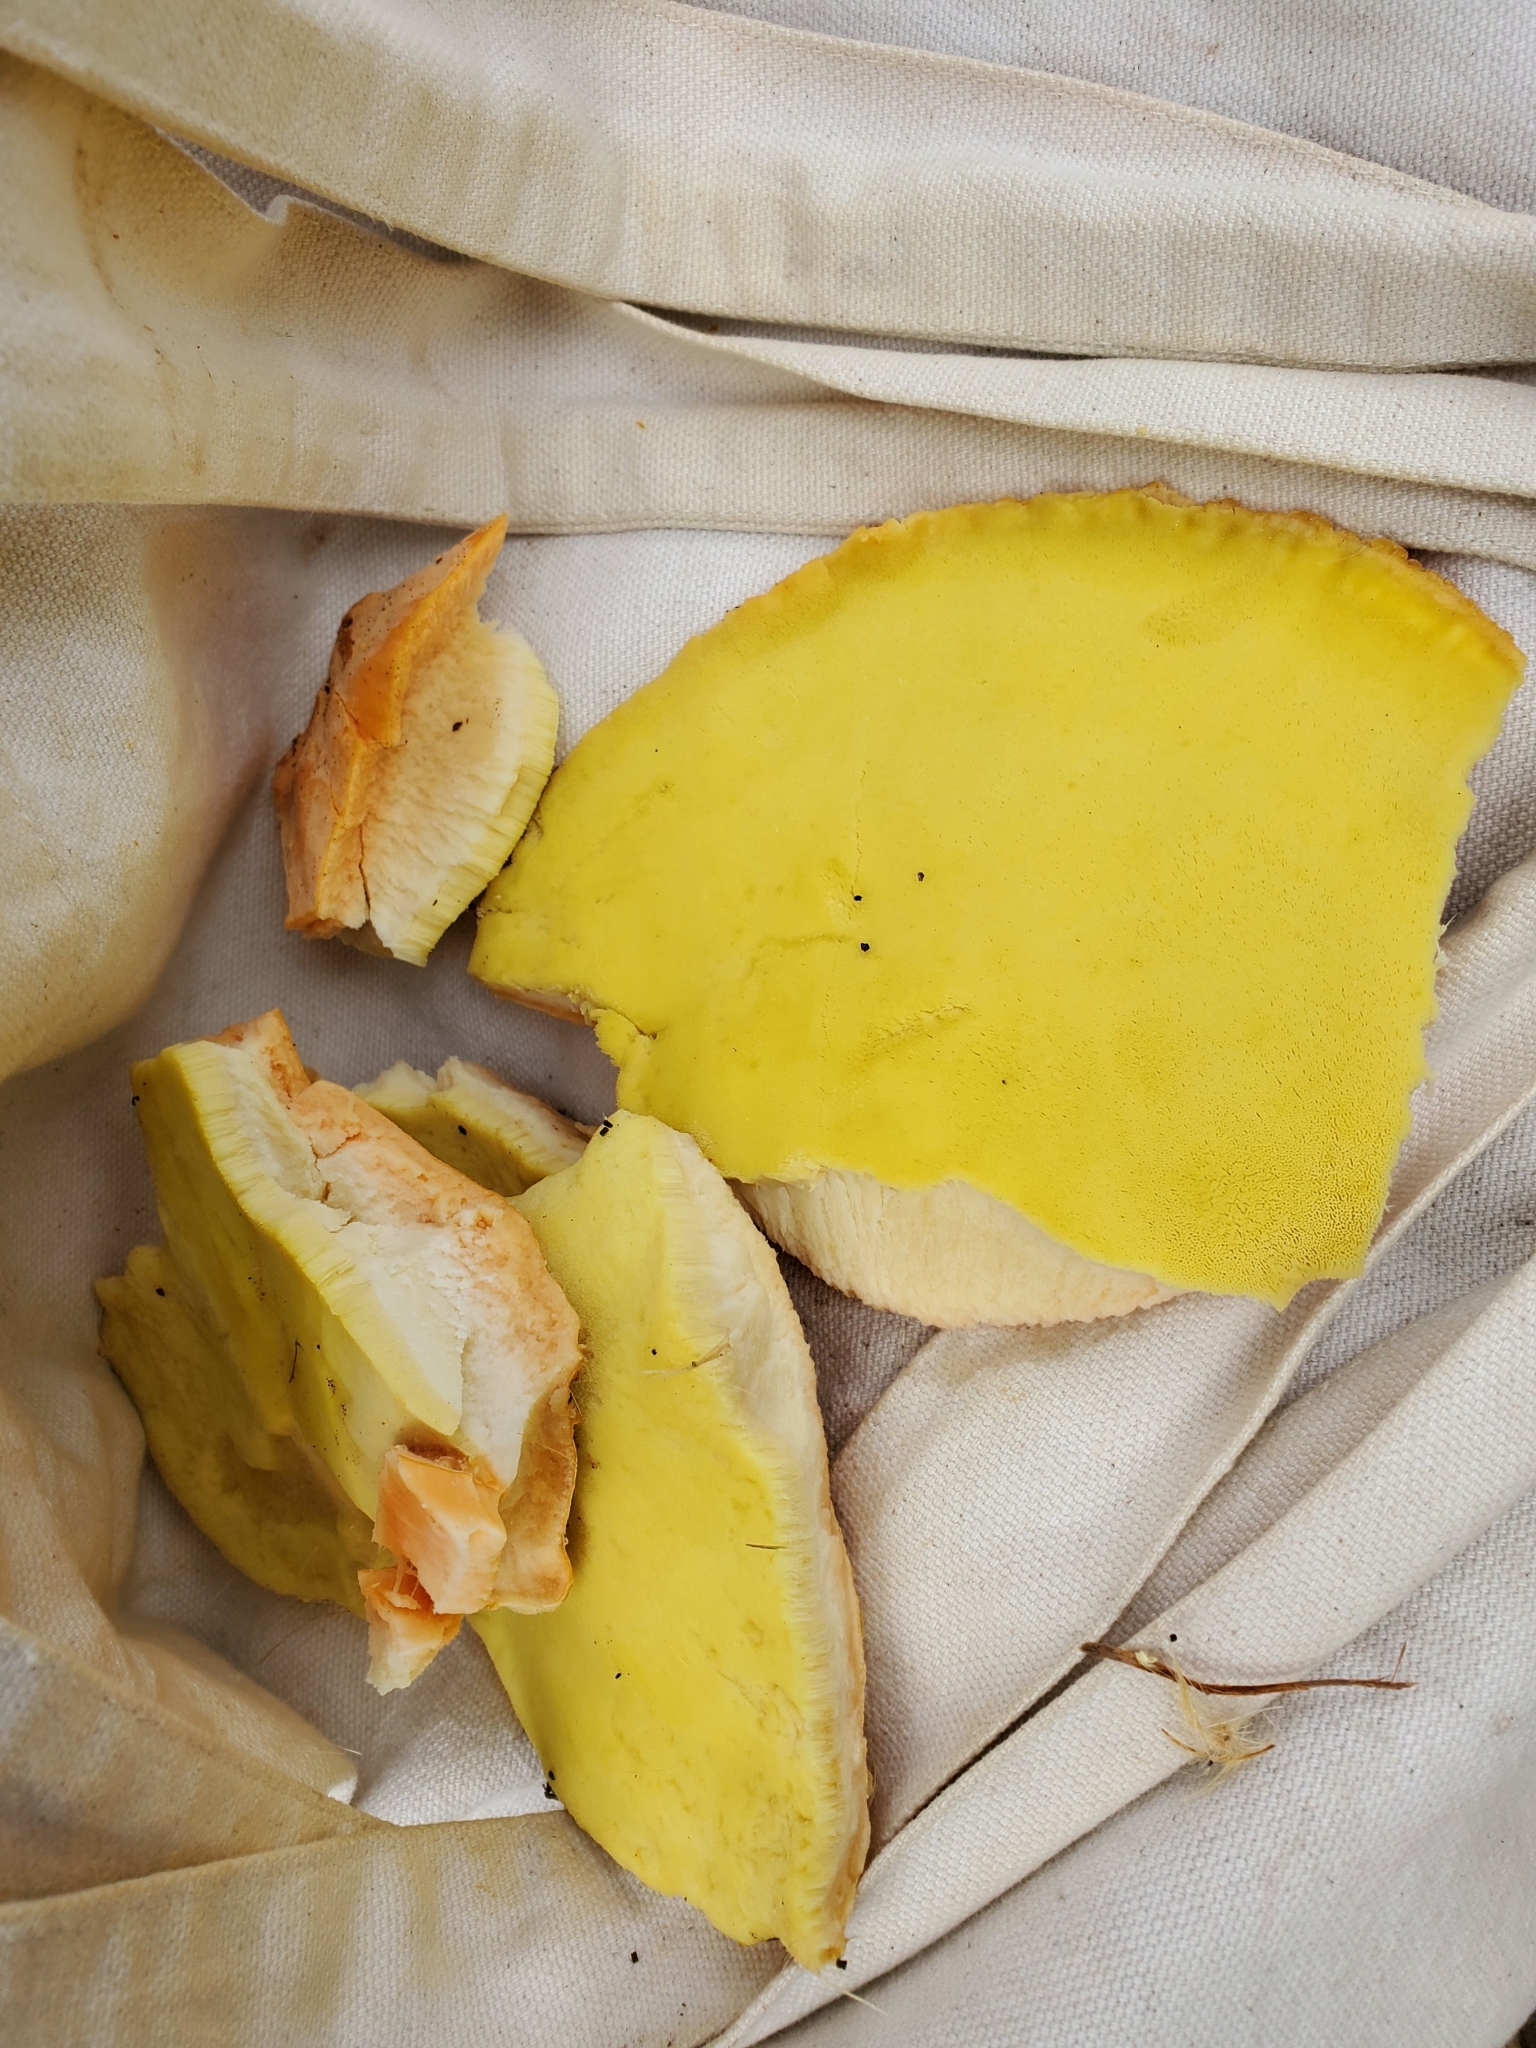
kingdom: Fungi
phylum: Basidiomycota
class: Agaricomycetes
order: Polyporales
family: Laetiporaceae
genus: Laetiporus
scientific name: Laetiporus gilbertsonii
